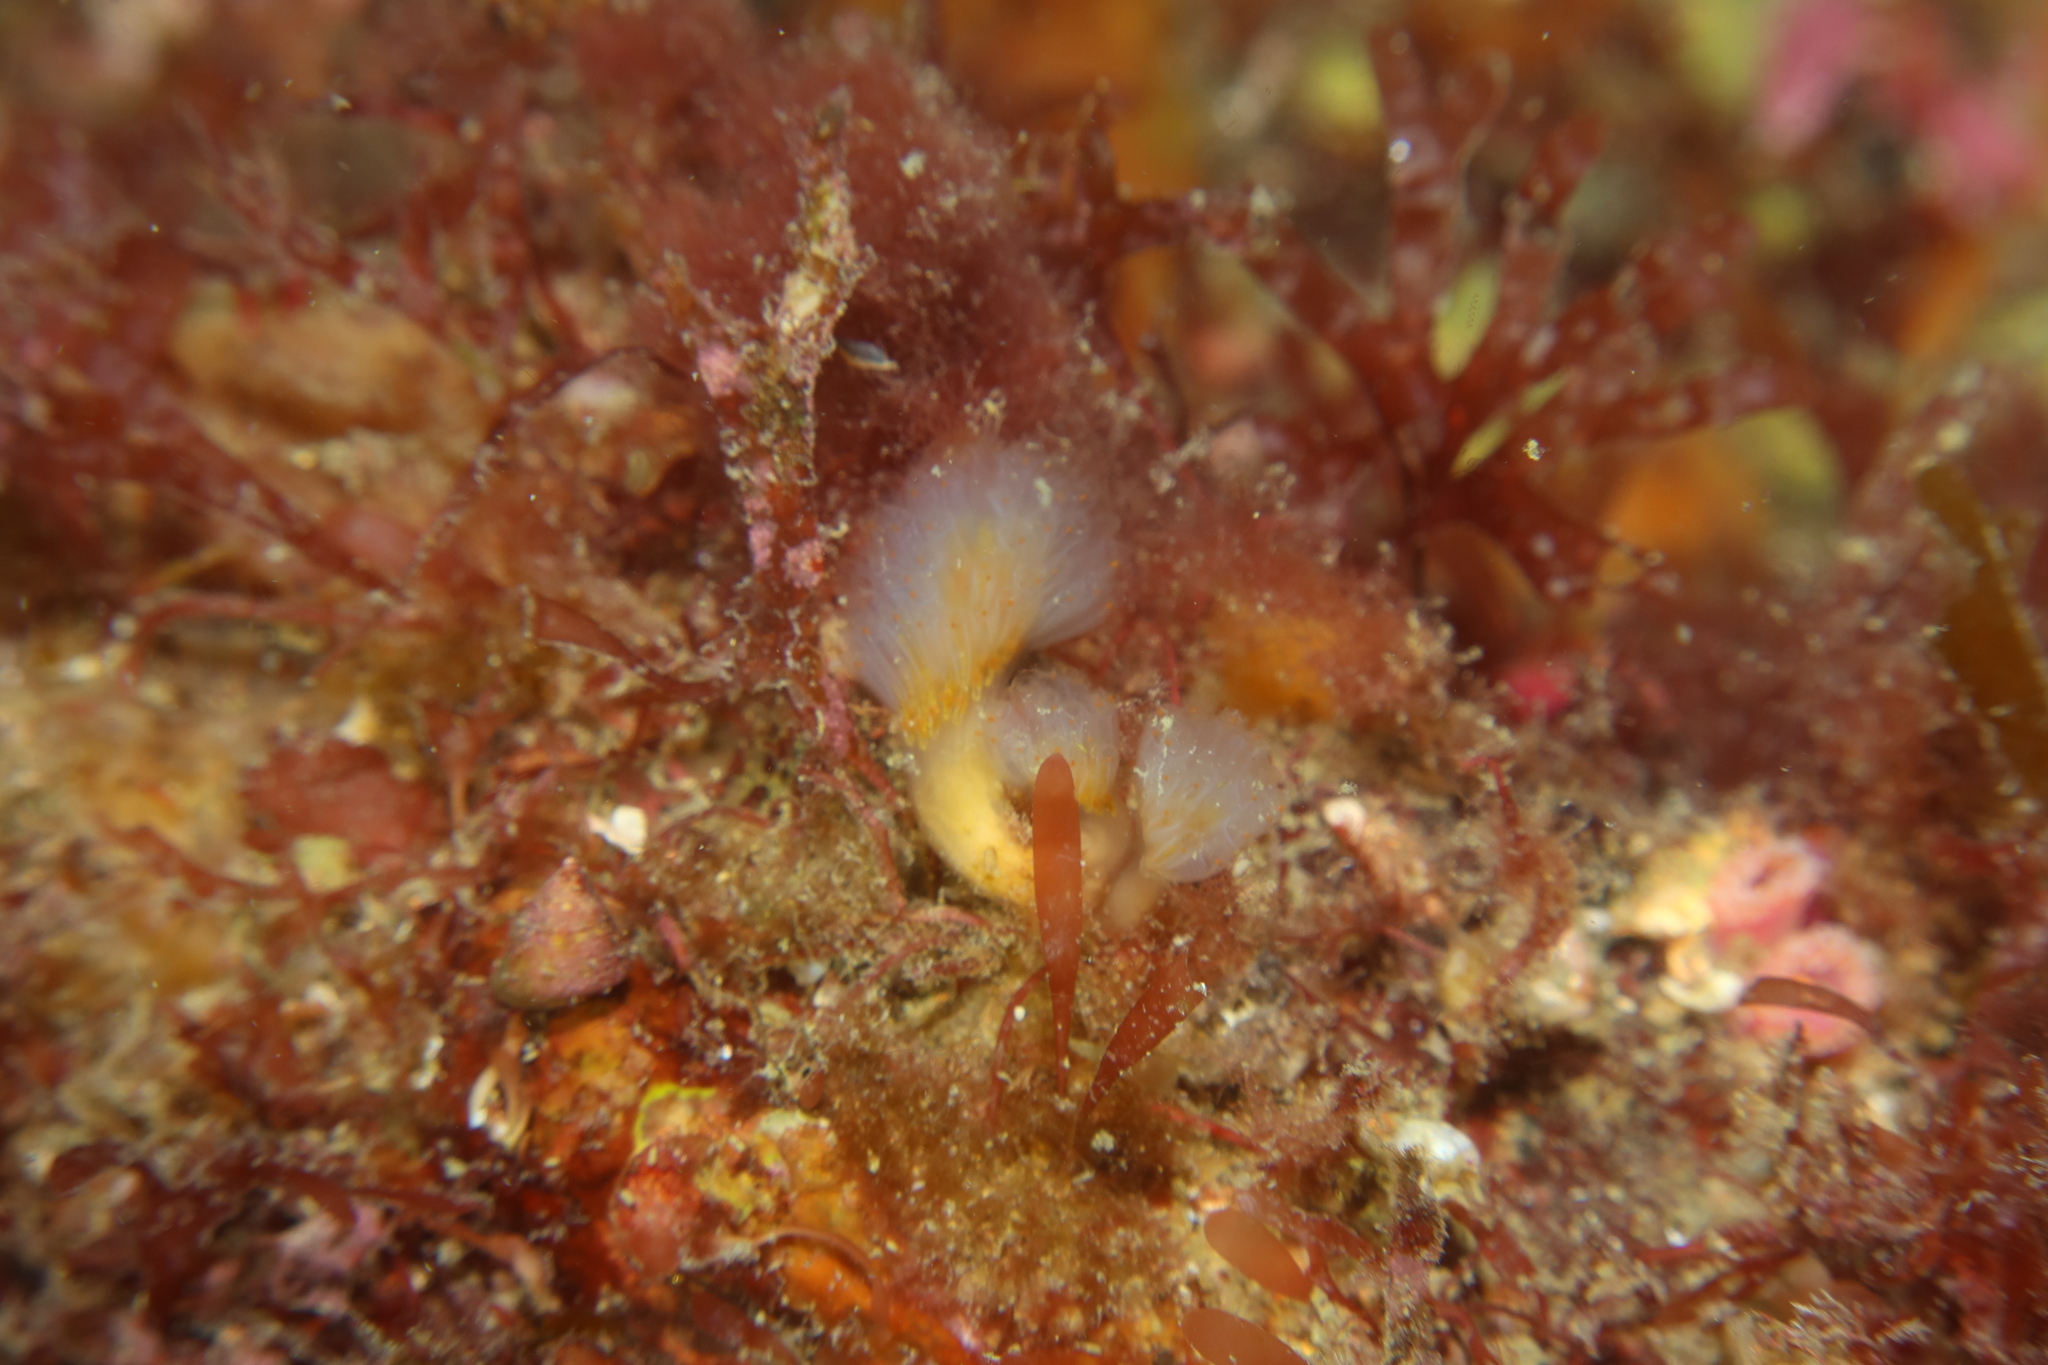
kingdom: Animalia
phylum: Chordata
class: Ascidiacea
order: Aplousobranchia
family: Polyclinidae
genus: Aplidium
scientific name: Aplidium punctum
